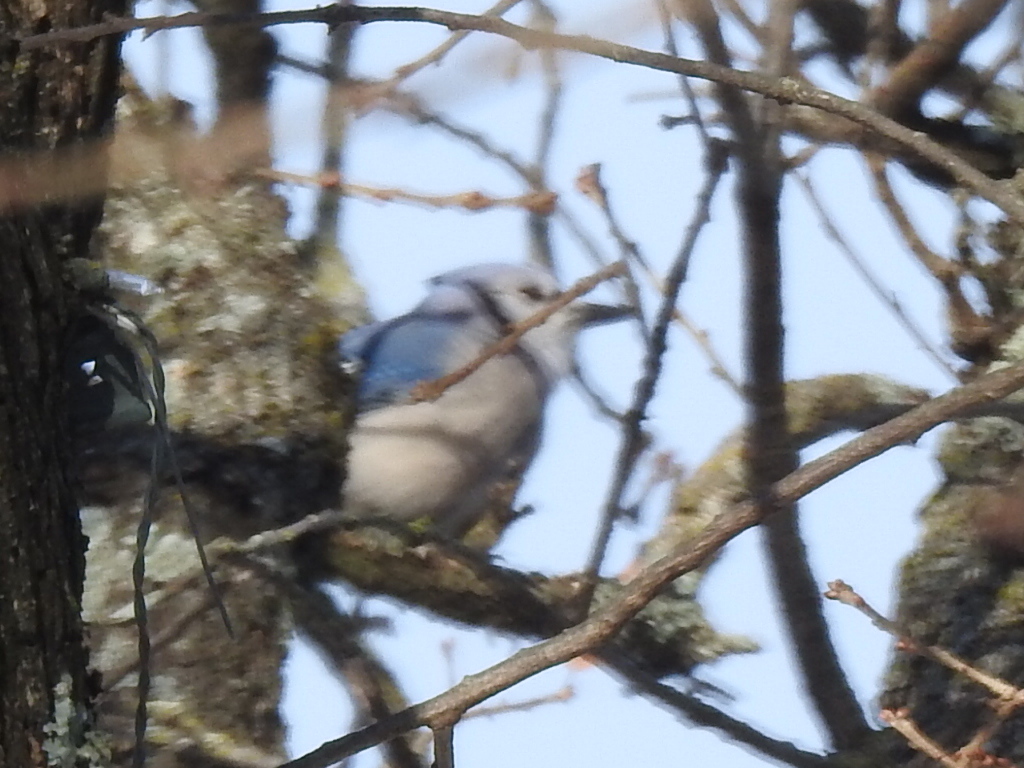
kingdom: Animalia
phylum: Chordata
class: Aves
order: Passeriformes
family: Corvidae
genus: Cyanocitta
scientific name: Cyanocitta cristata
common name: Blue jay
